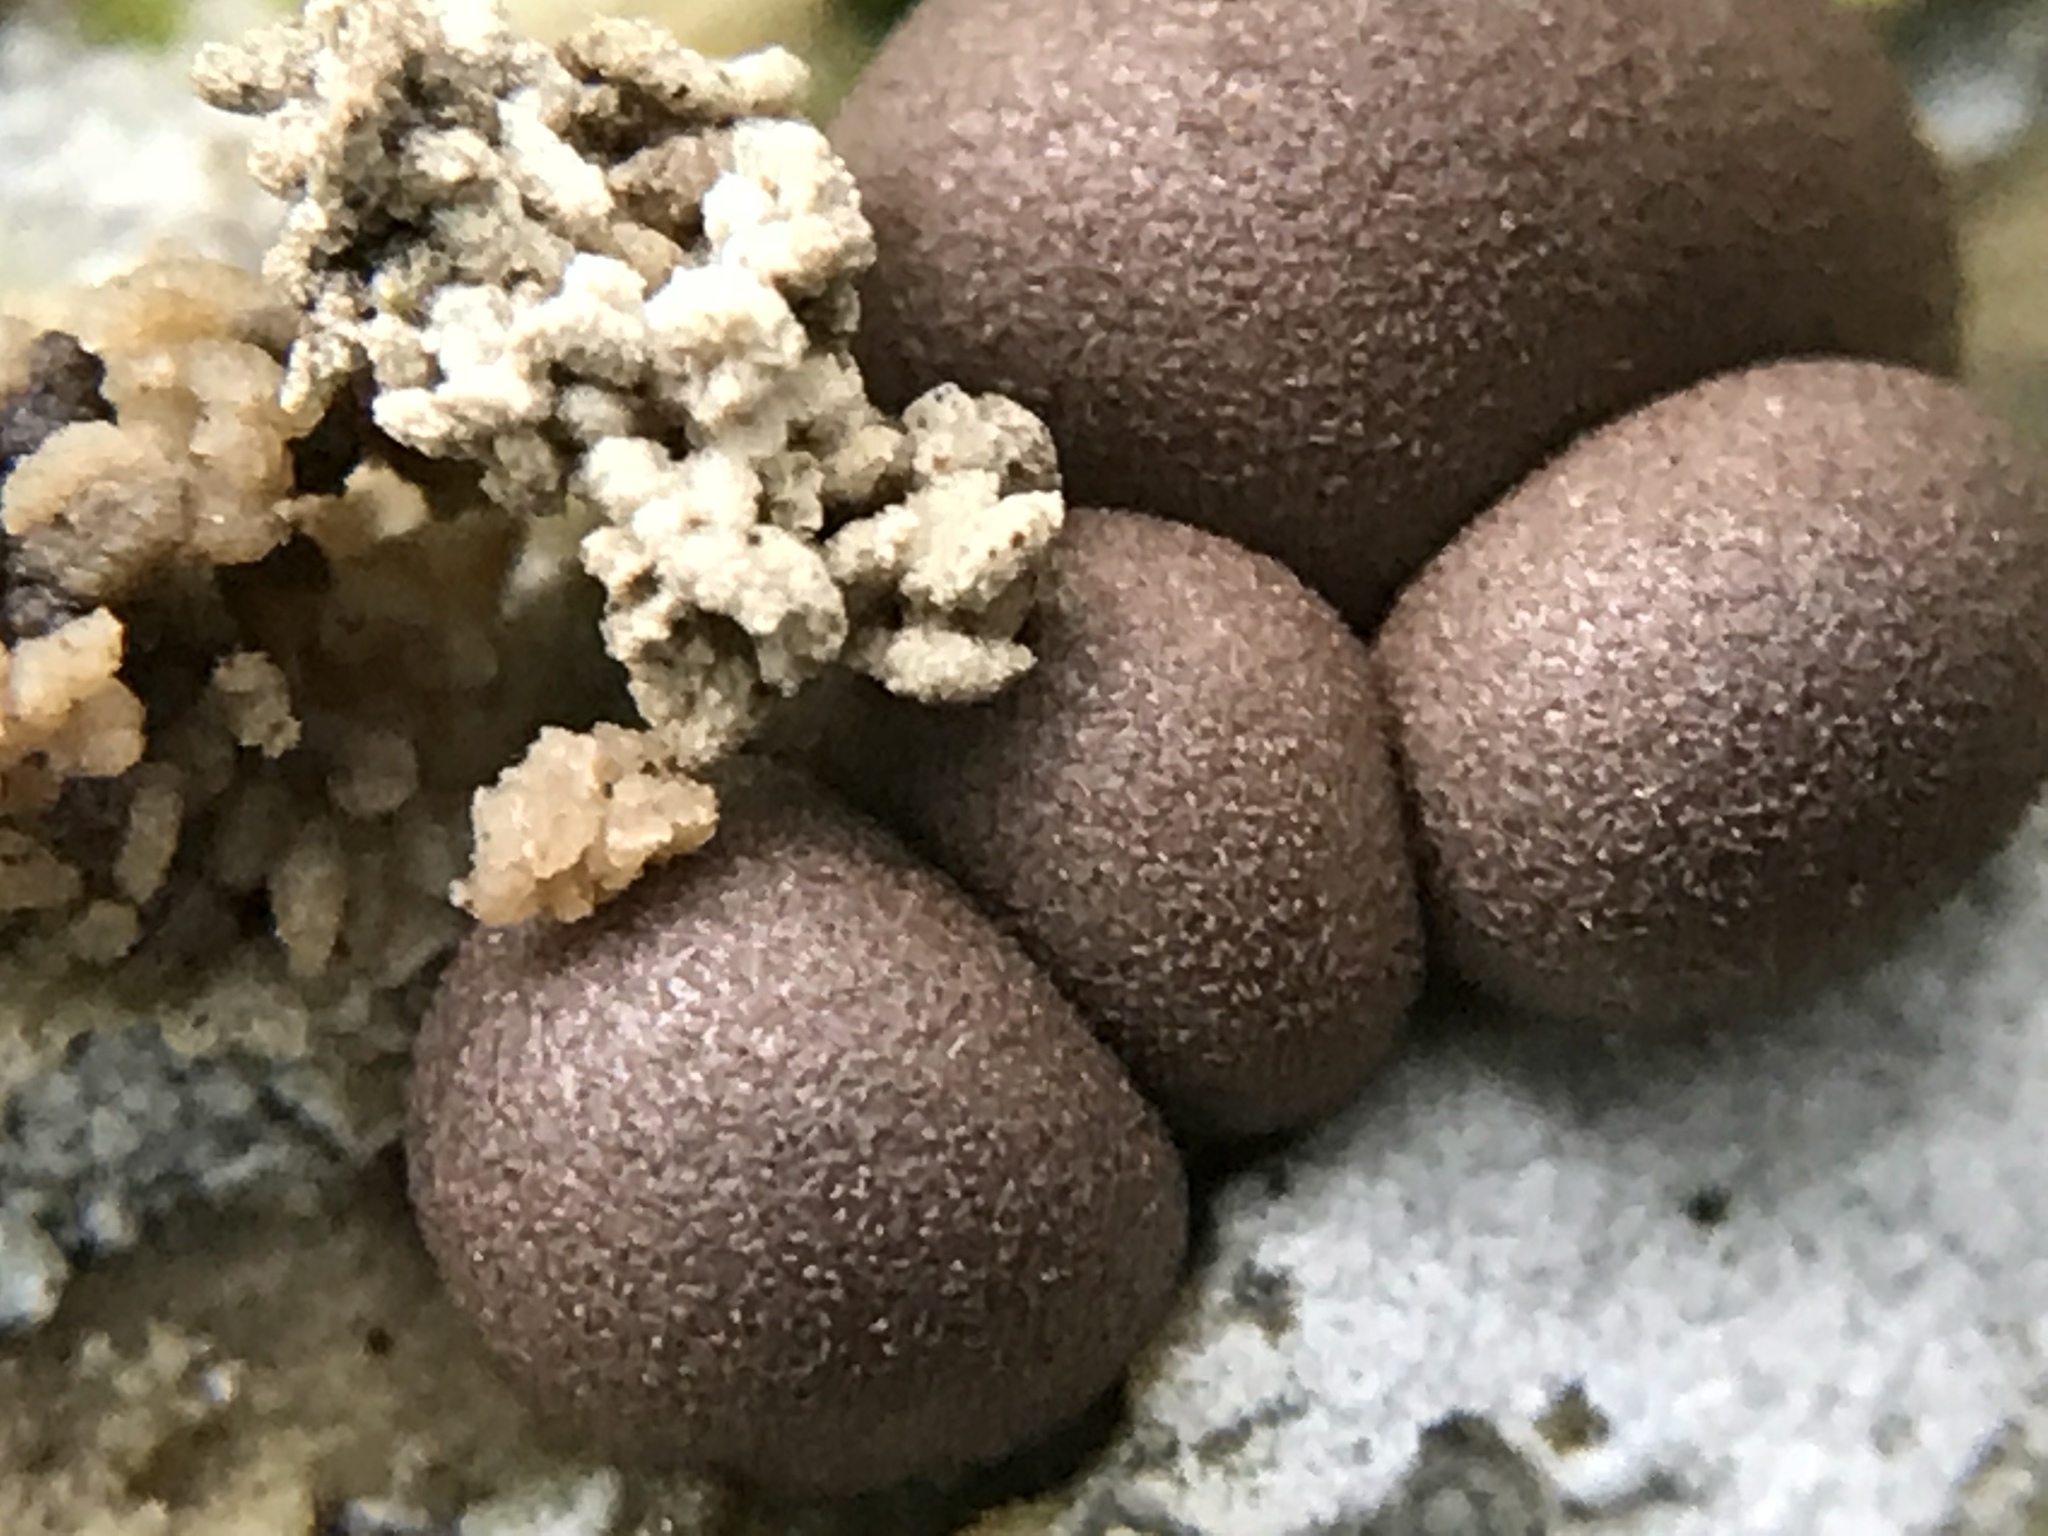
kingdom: Protozoa
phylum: Mycetozoa
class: Myxomycetes
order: Cribrariales
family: Tubiferaceae
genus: Lycogala
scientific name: Lycogala epidendrum
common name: Wolf's milk
